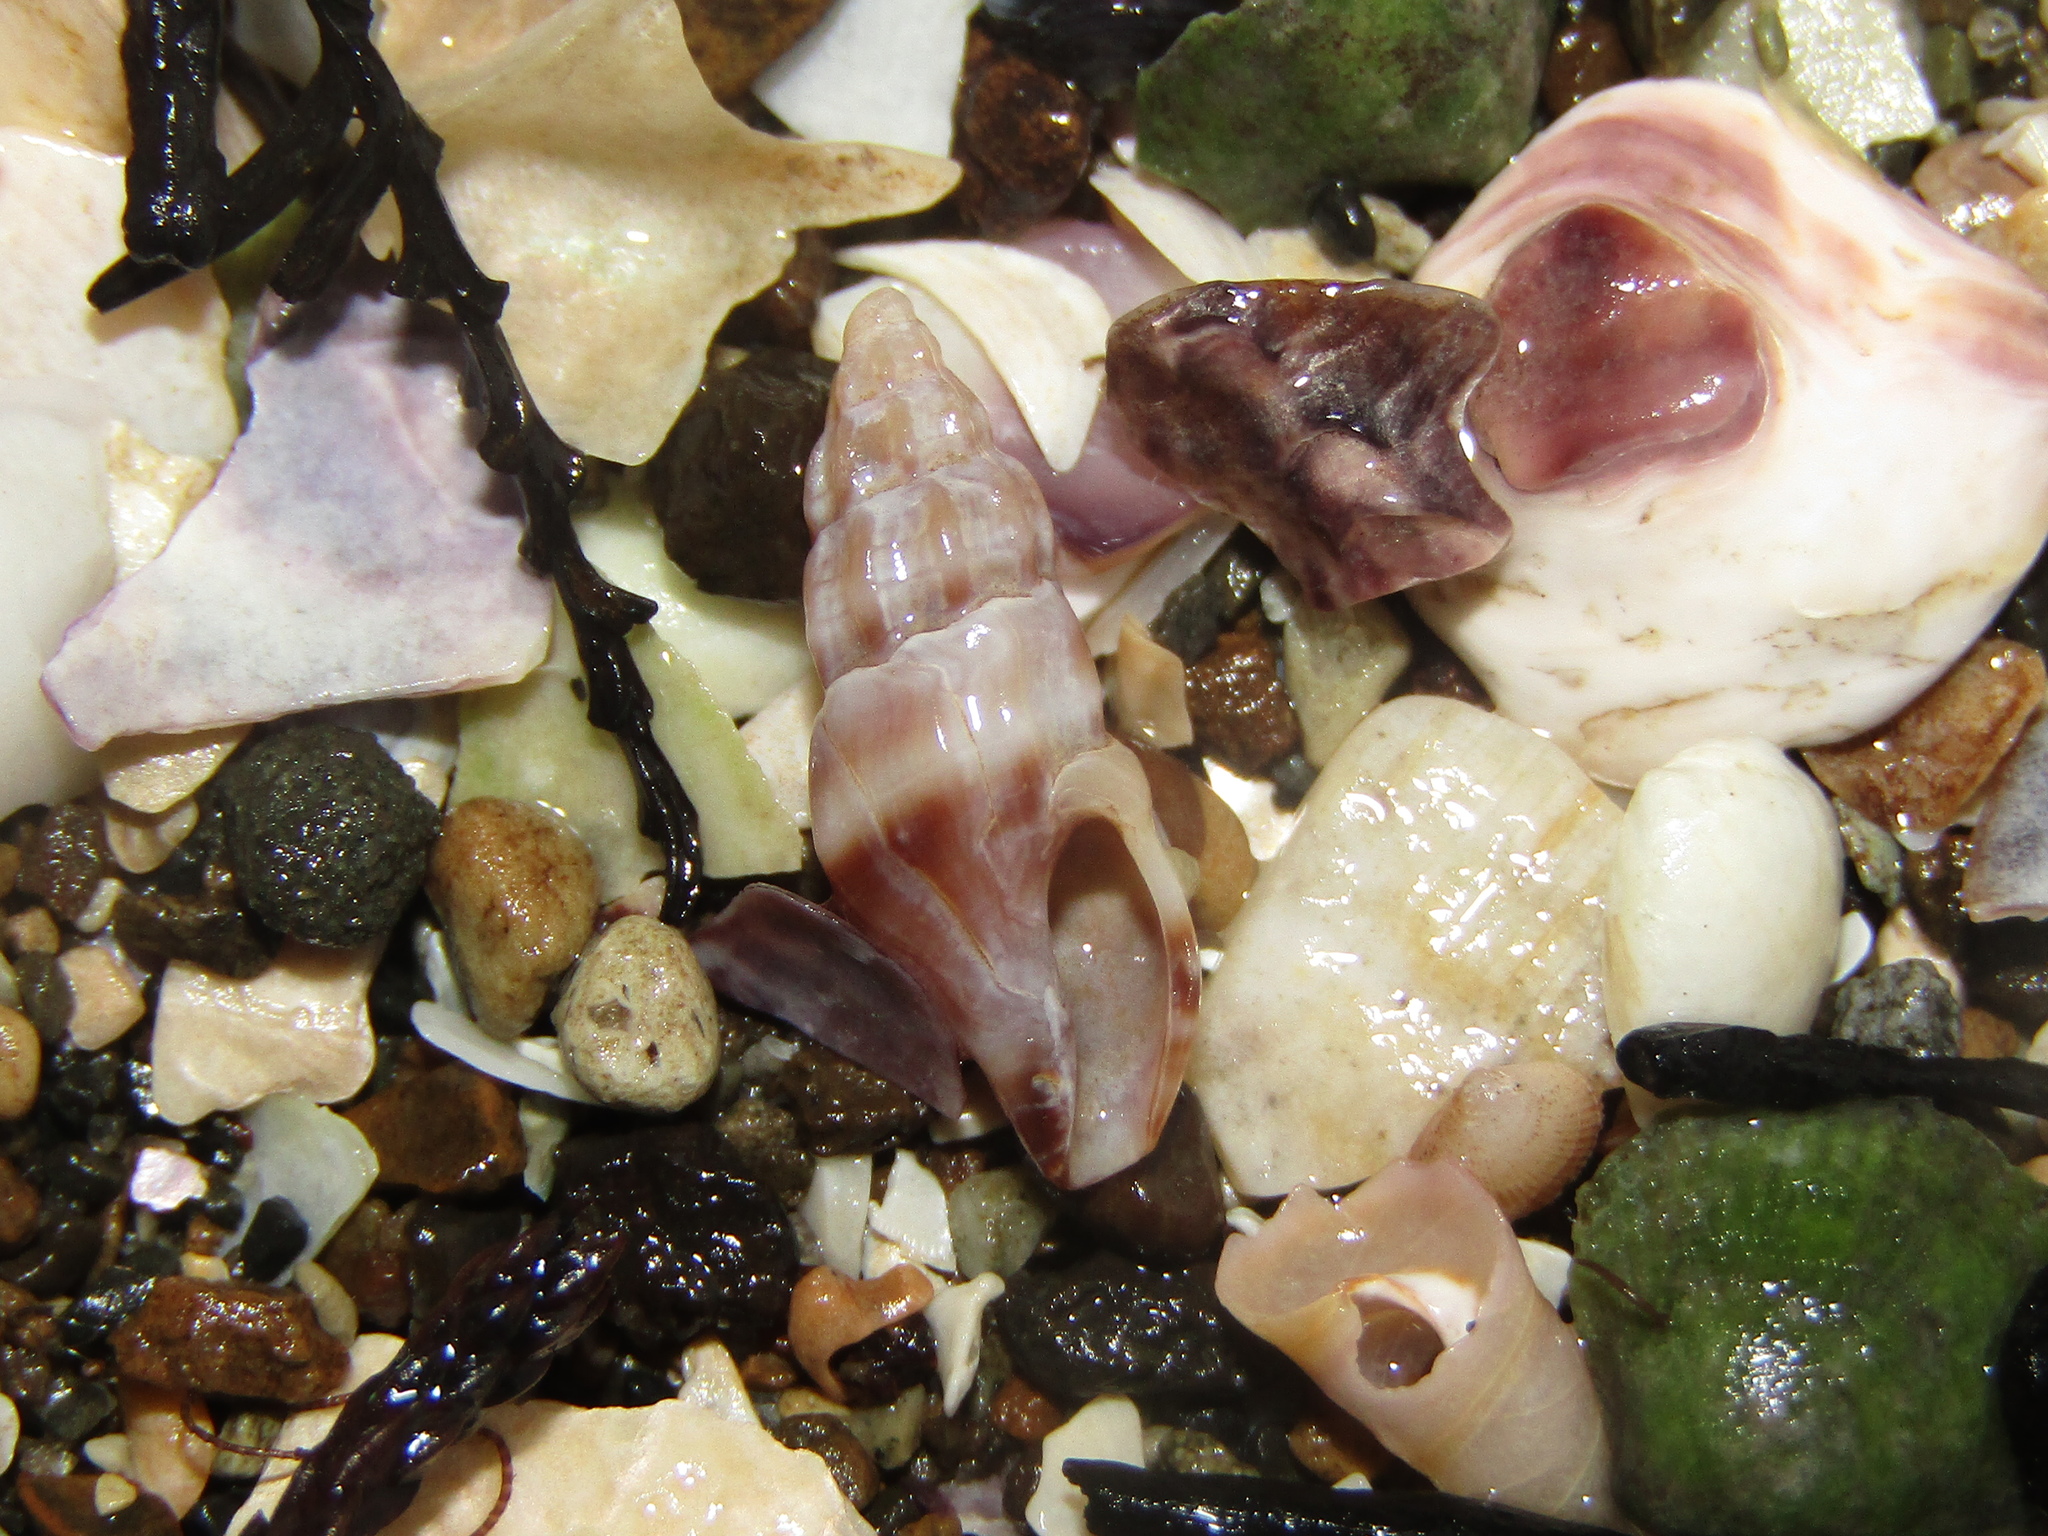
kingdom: Animalia
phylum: Mollusca
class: Gastropoda
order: Neogastropoda
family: Mangeliidae
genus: Neoguraleus
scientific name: Neoguraleus manukauensis
